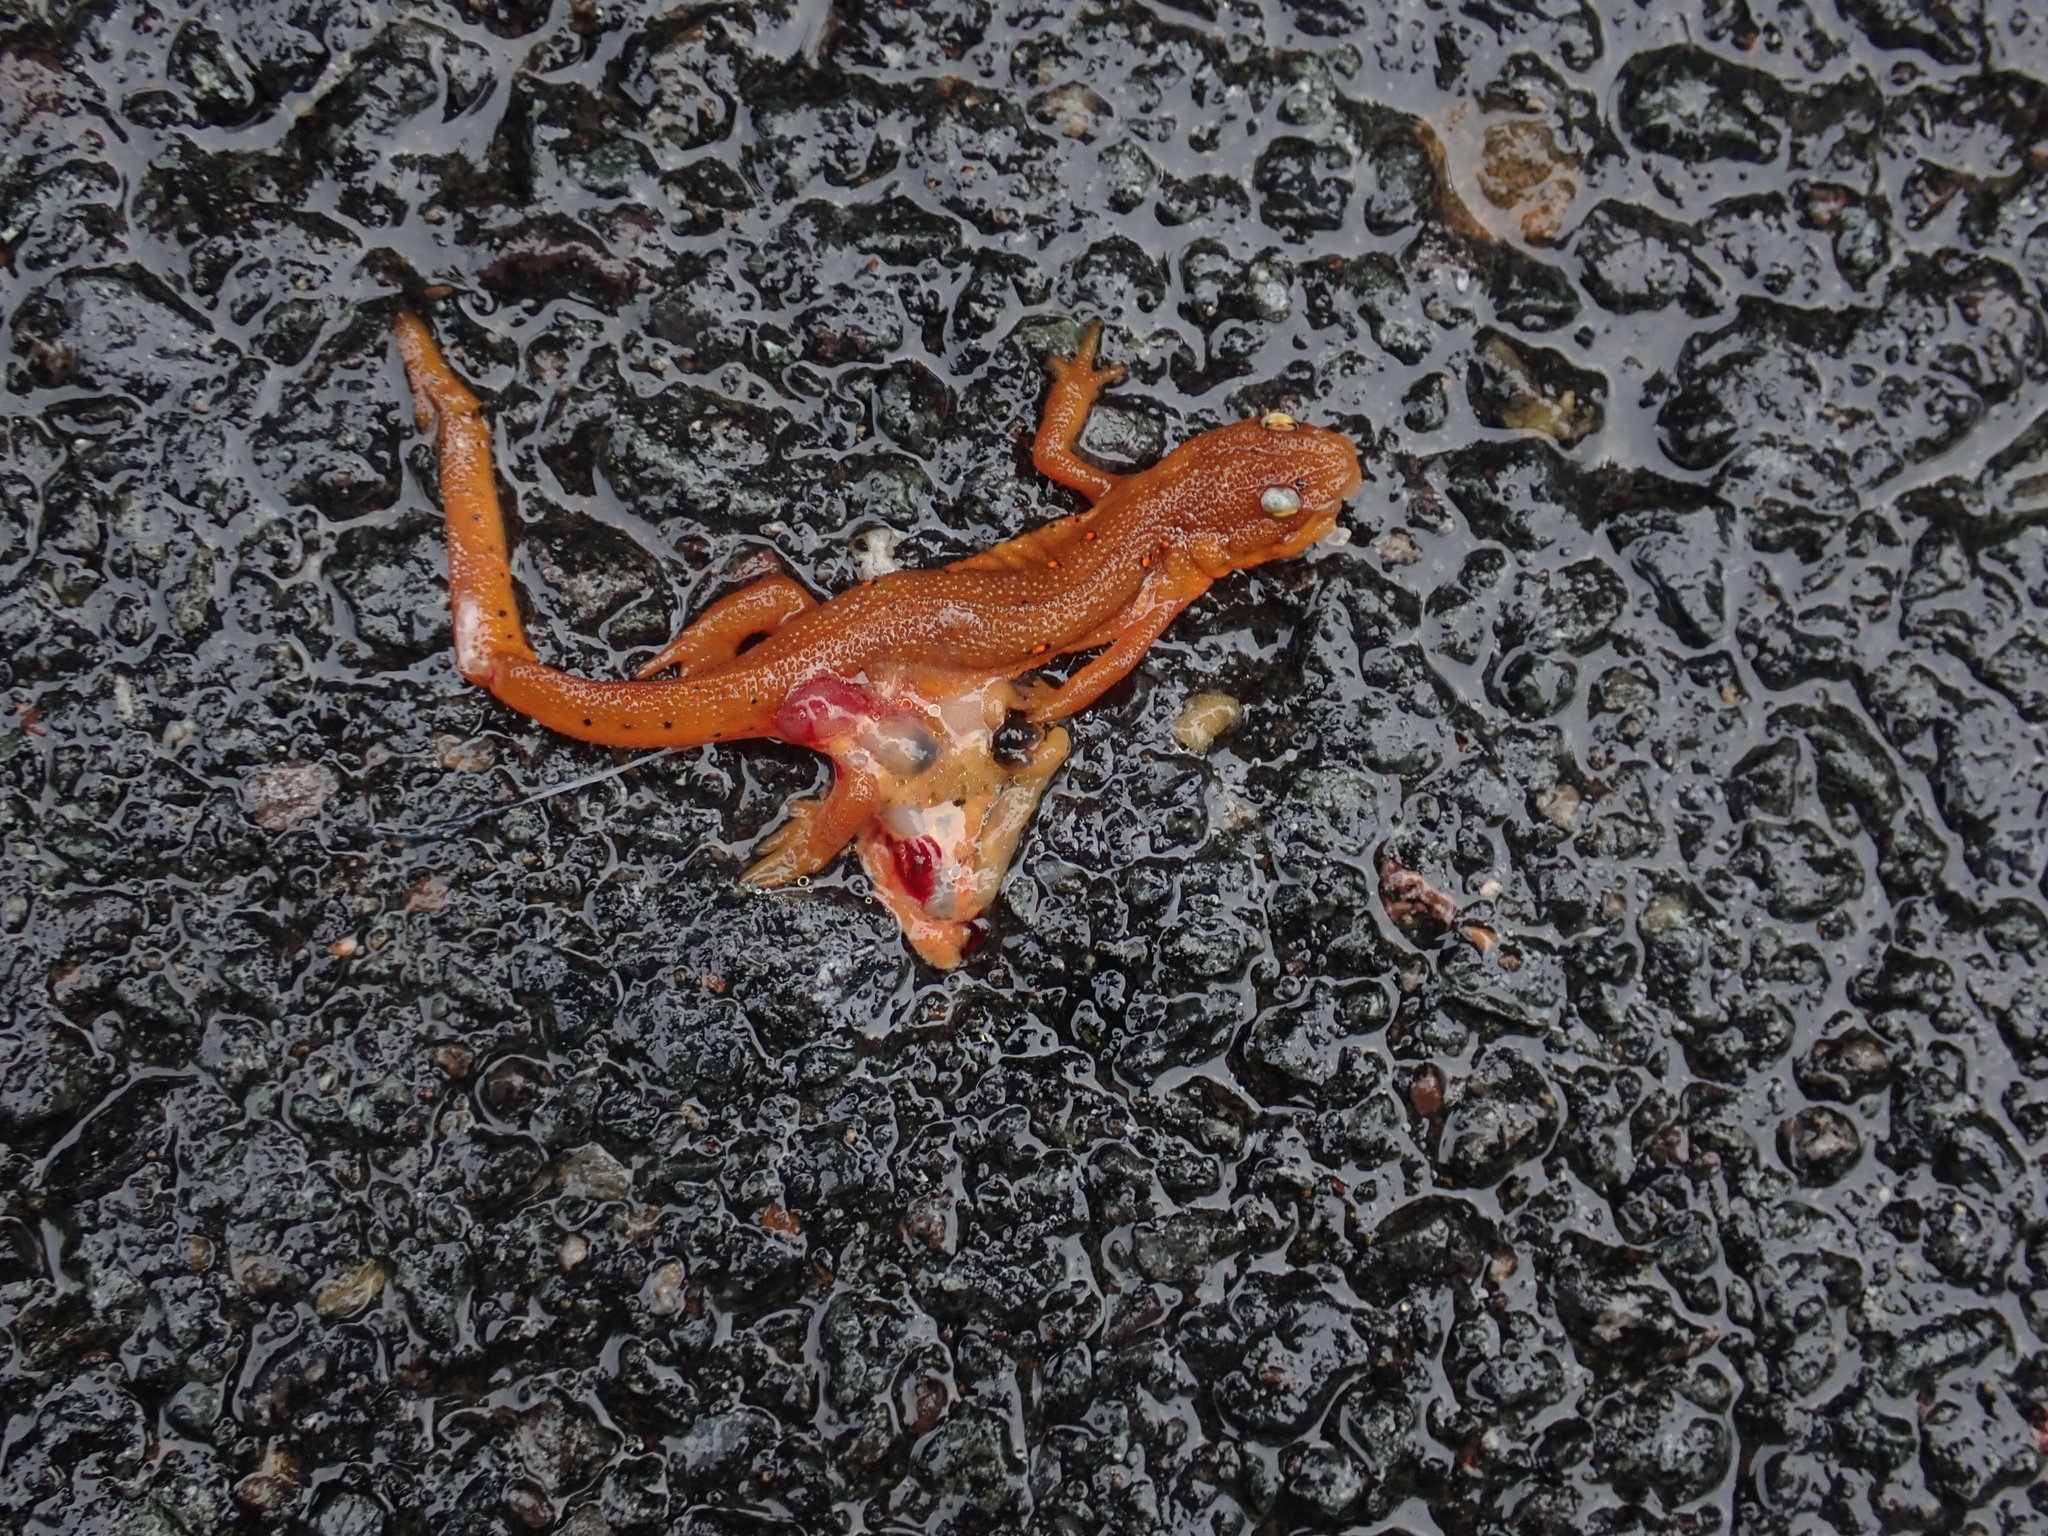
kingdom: Animalia
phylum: Chordata
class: Amphibia
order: Caudata
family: Salamandridae
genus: Notophthalmus
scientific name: Notophthalmus viridescens
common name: Eastern newt
